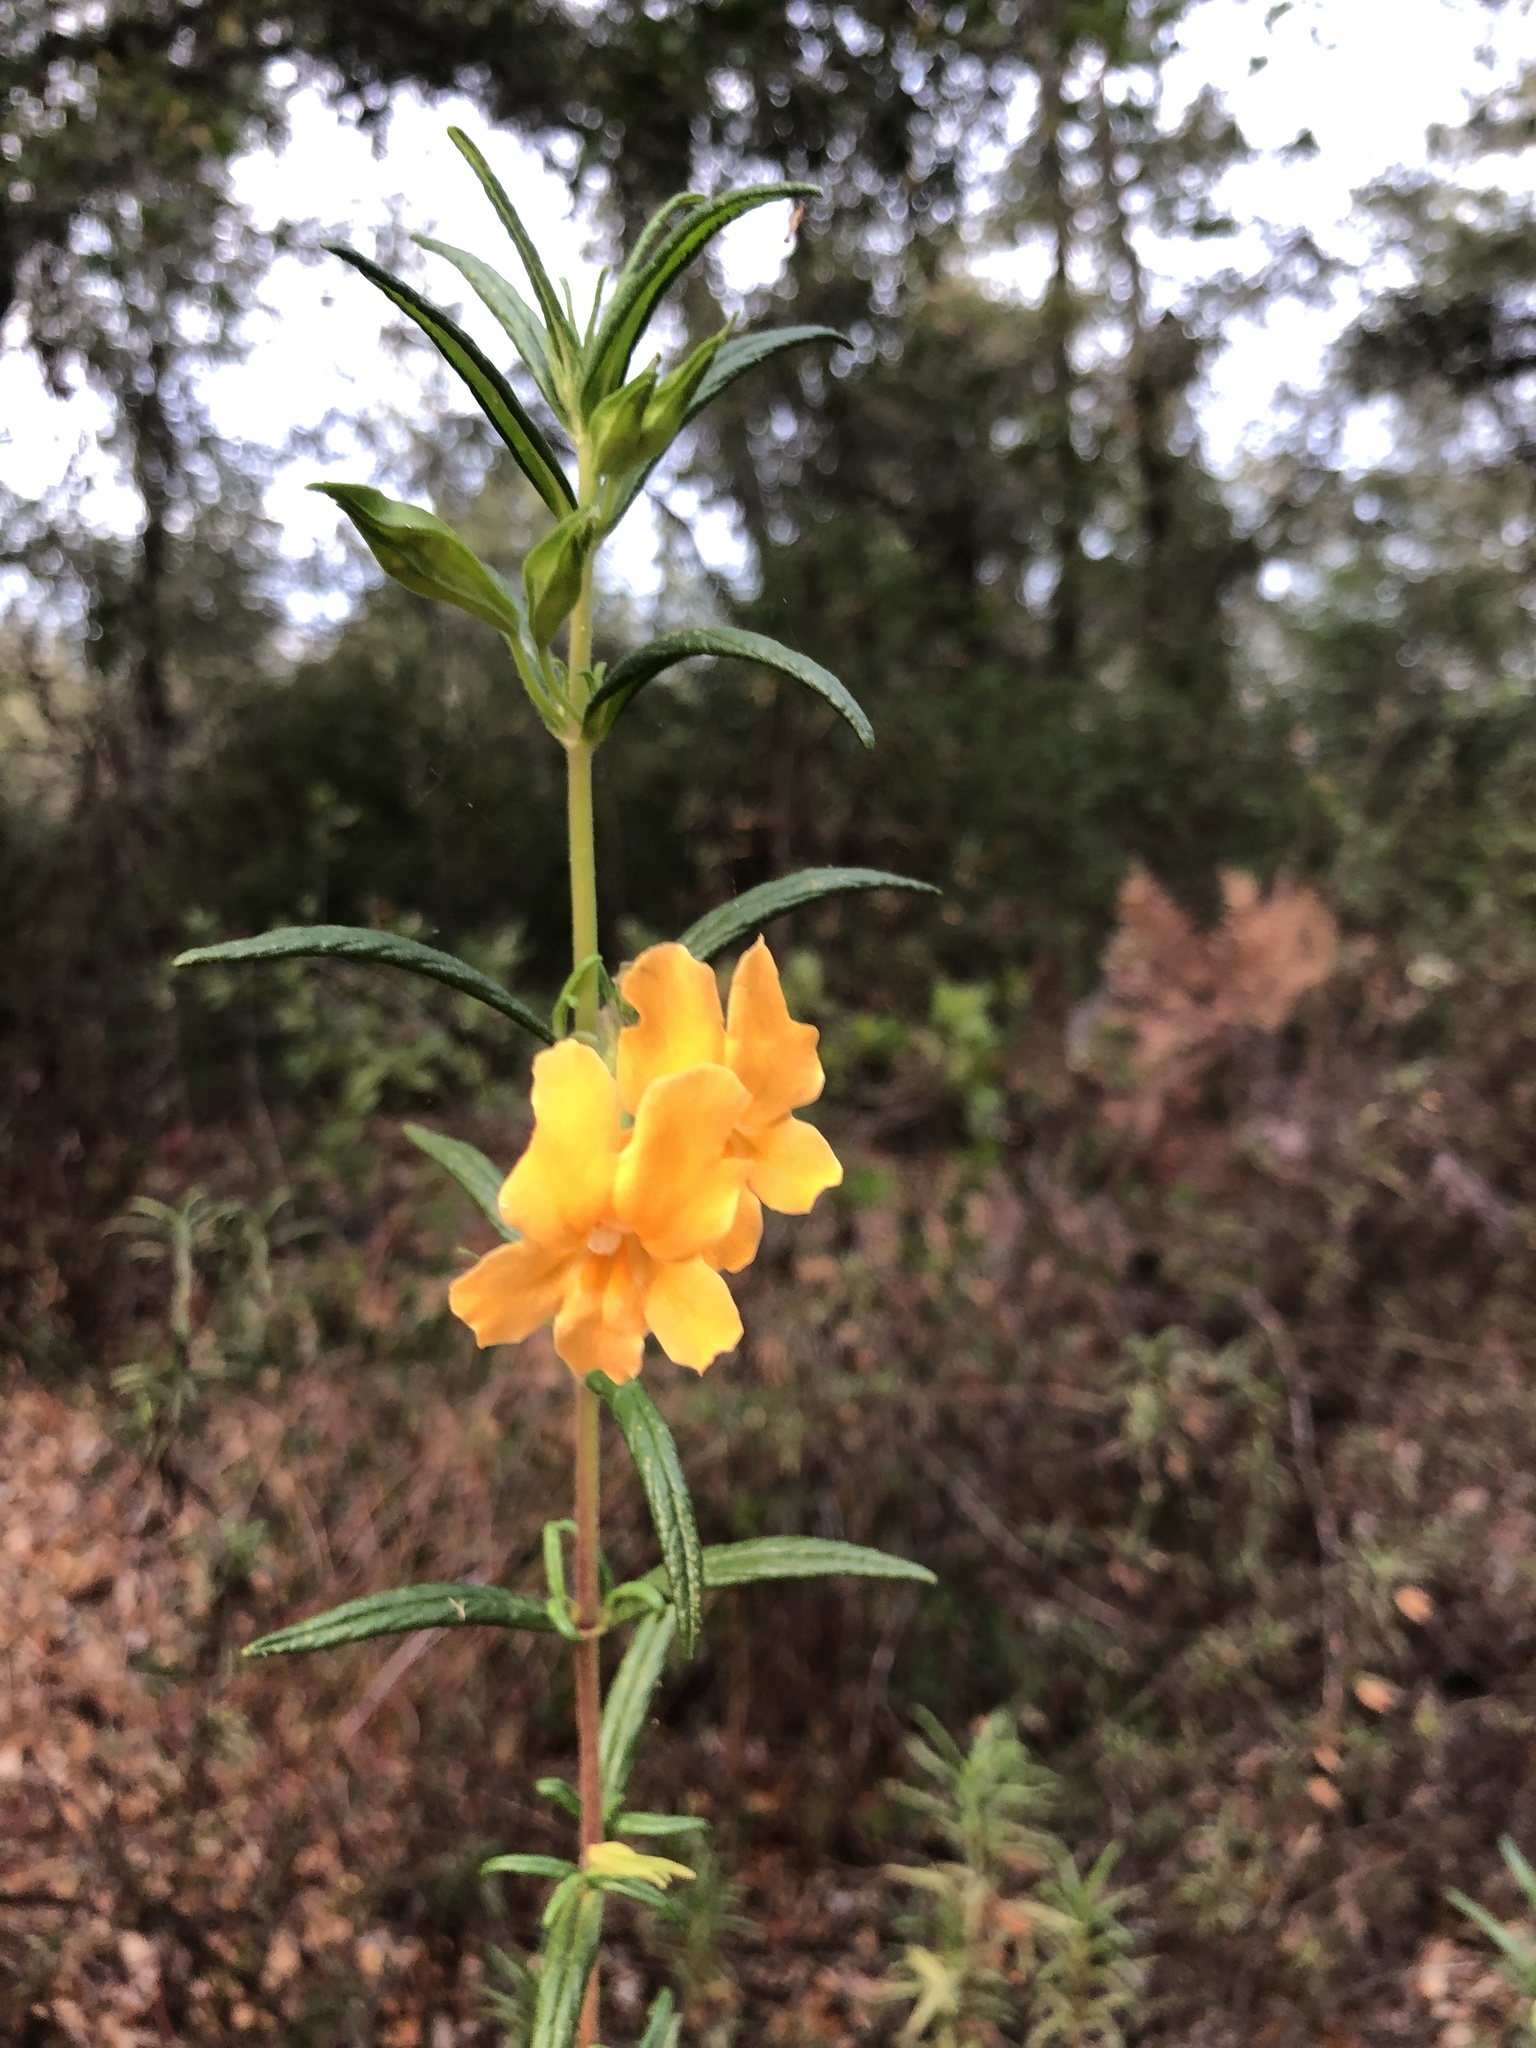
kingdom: Plantae
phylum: Tracheophyta
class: Magnoliopsida
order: Lamiales
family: Phrymaceae
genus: Diplacus
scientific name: Diplacus aurantiacus
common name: Bush monkey-flower
